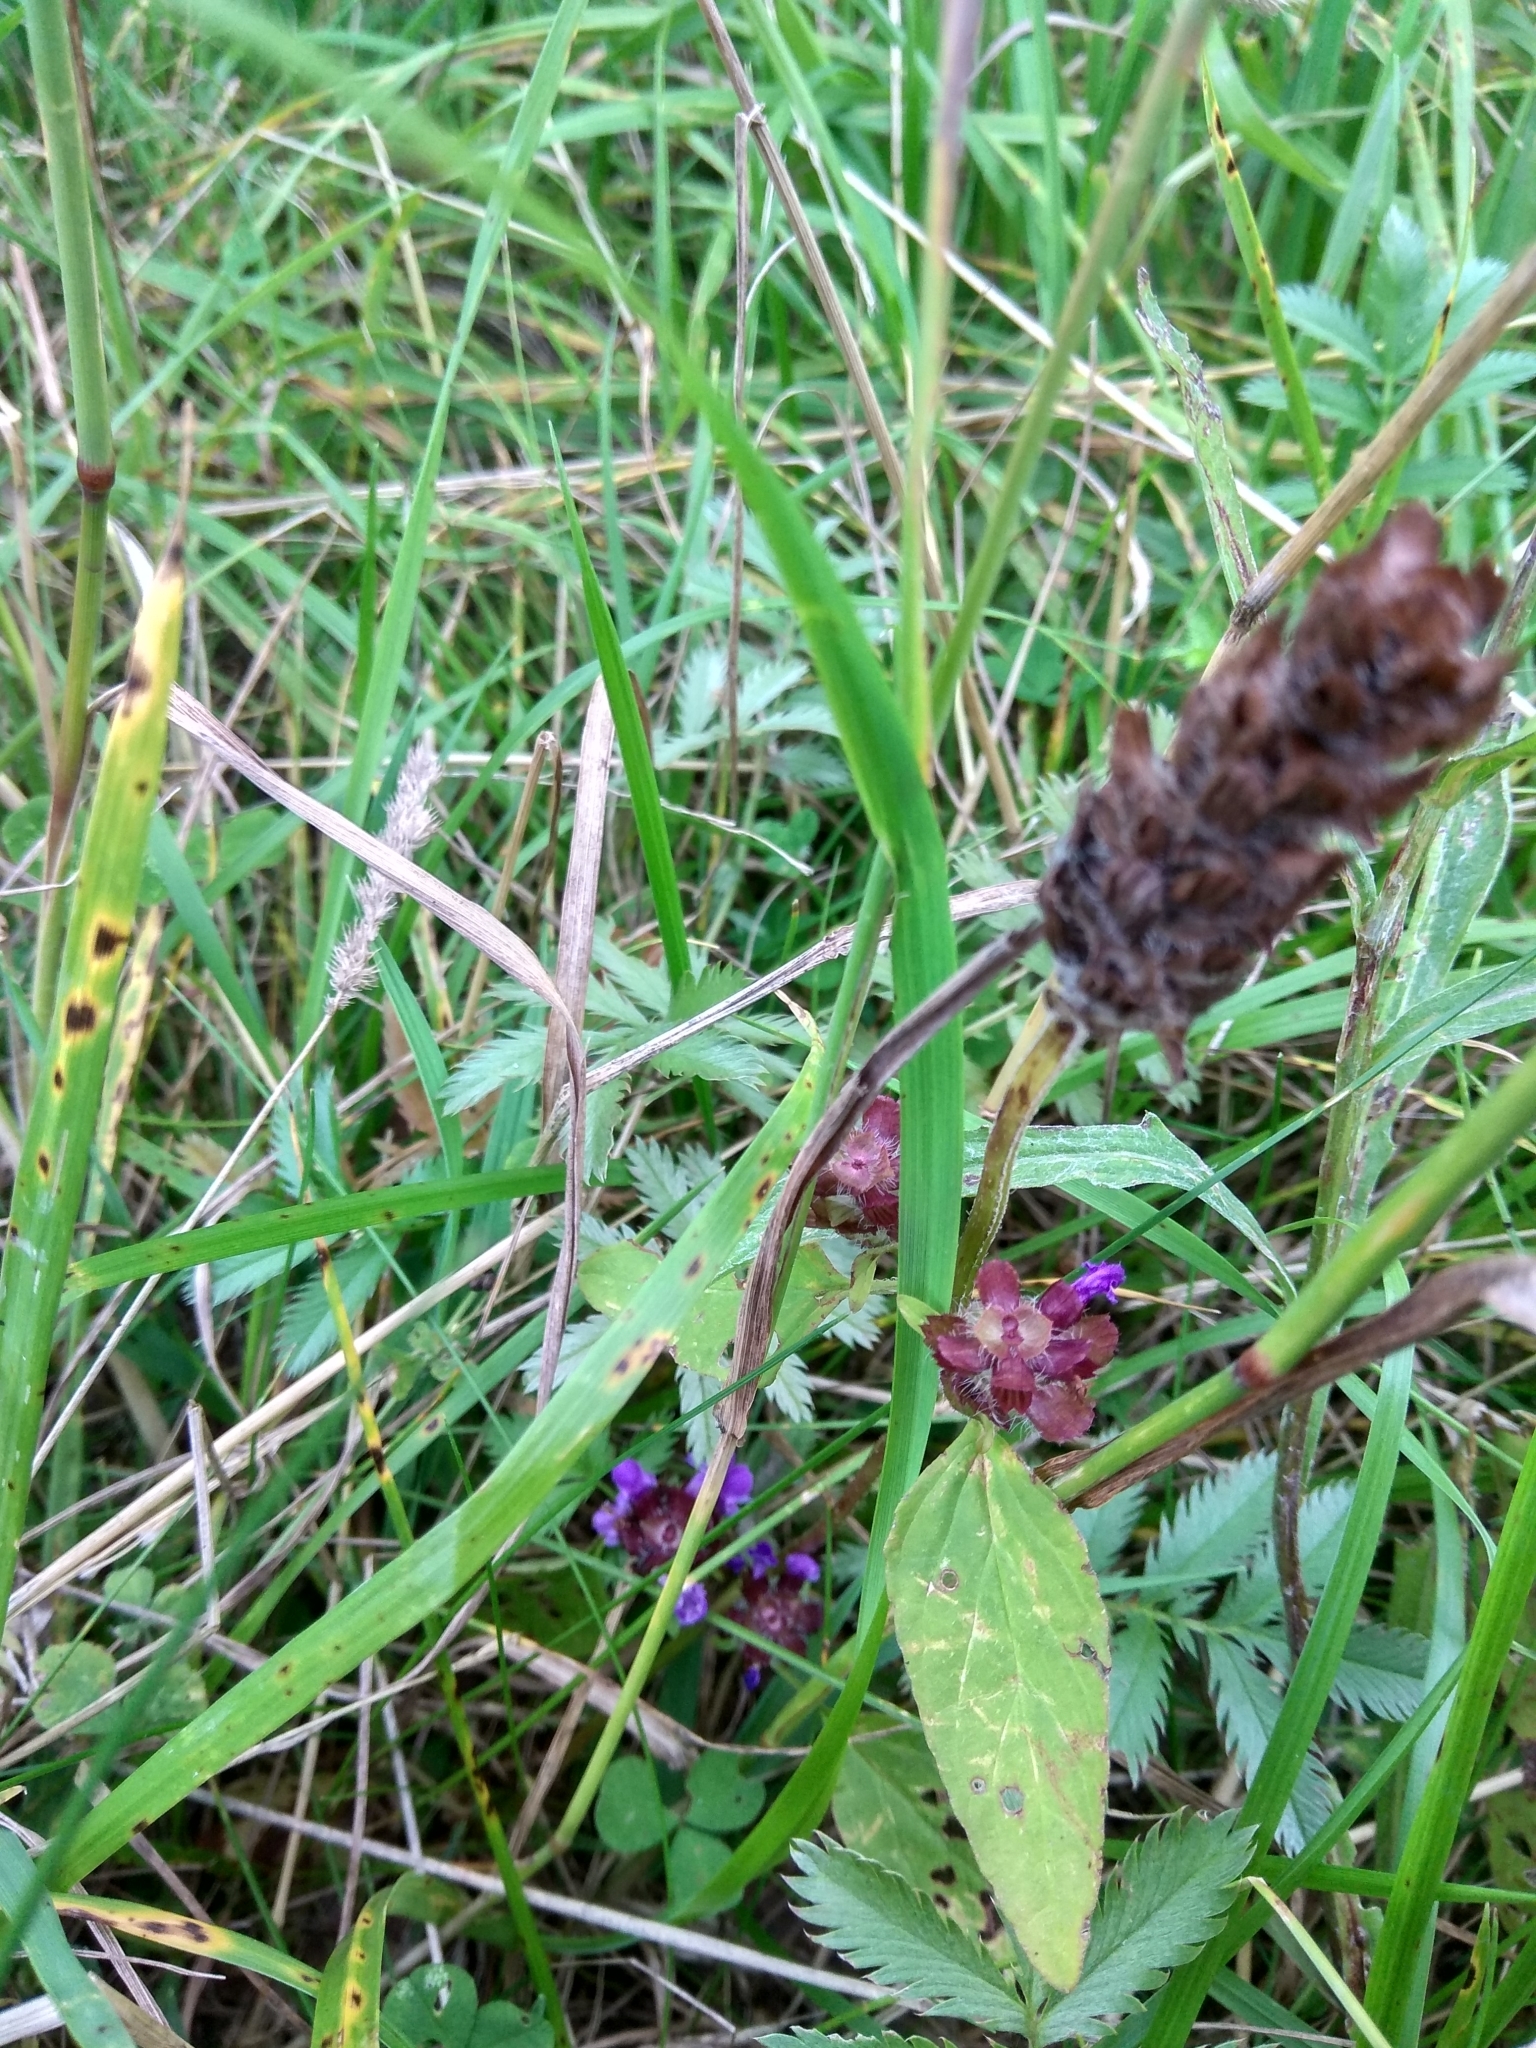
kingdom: Plantae
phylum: Tracheophyta
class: Magnoliopsida
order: Lamiales
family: Lamiaceae
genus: Prunella
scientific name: Prunella vulgaris
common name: Heal-all
